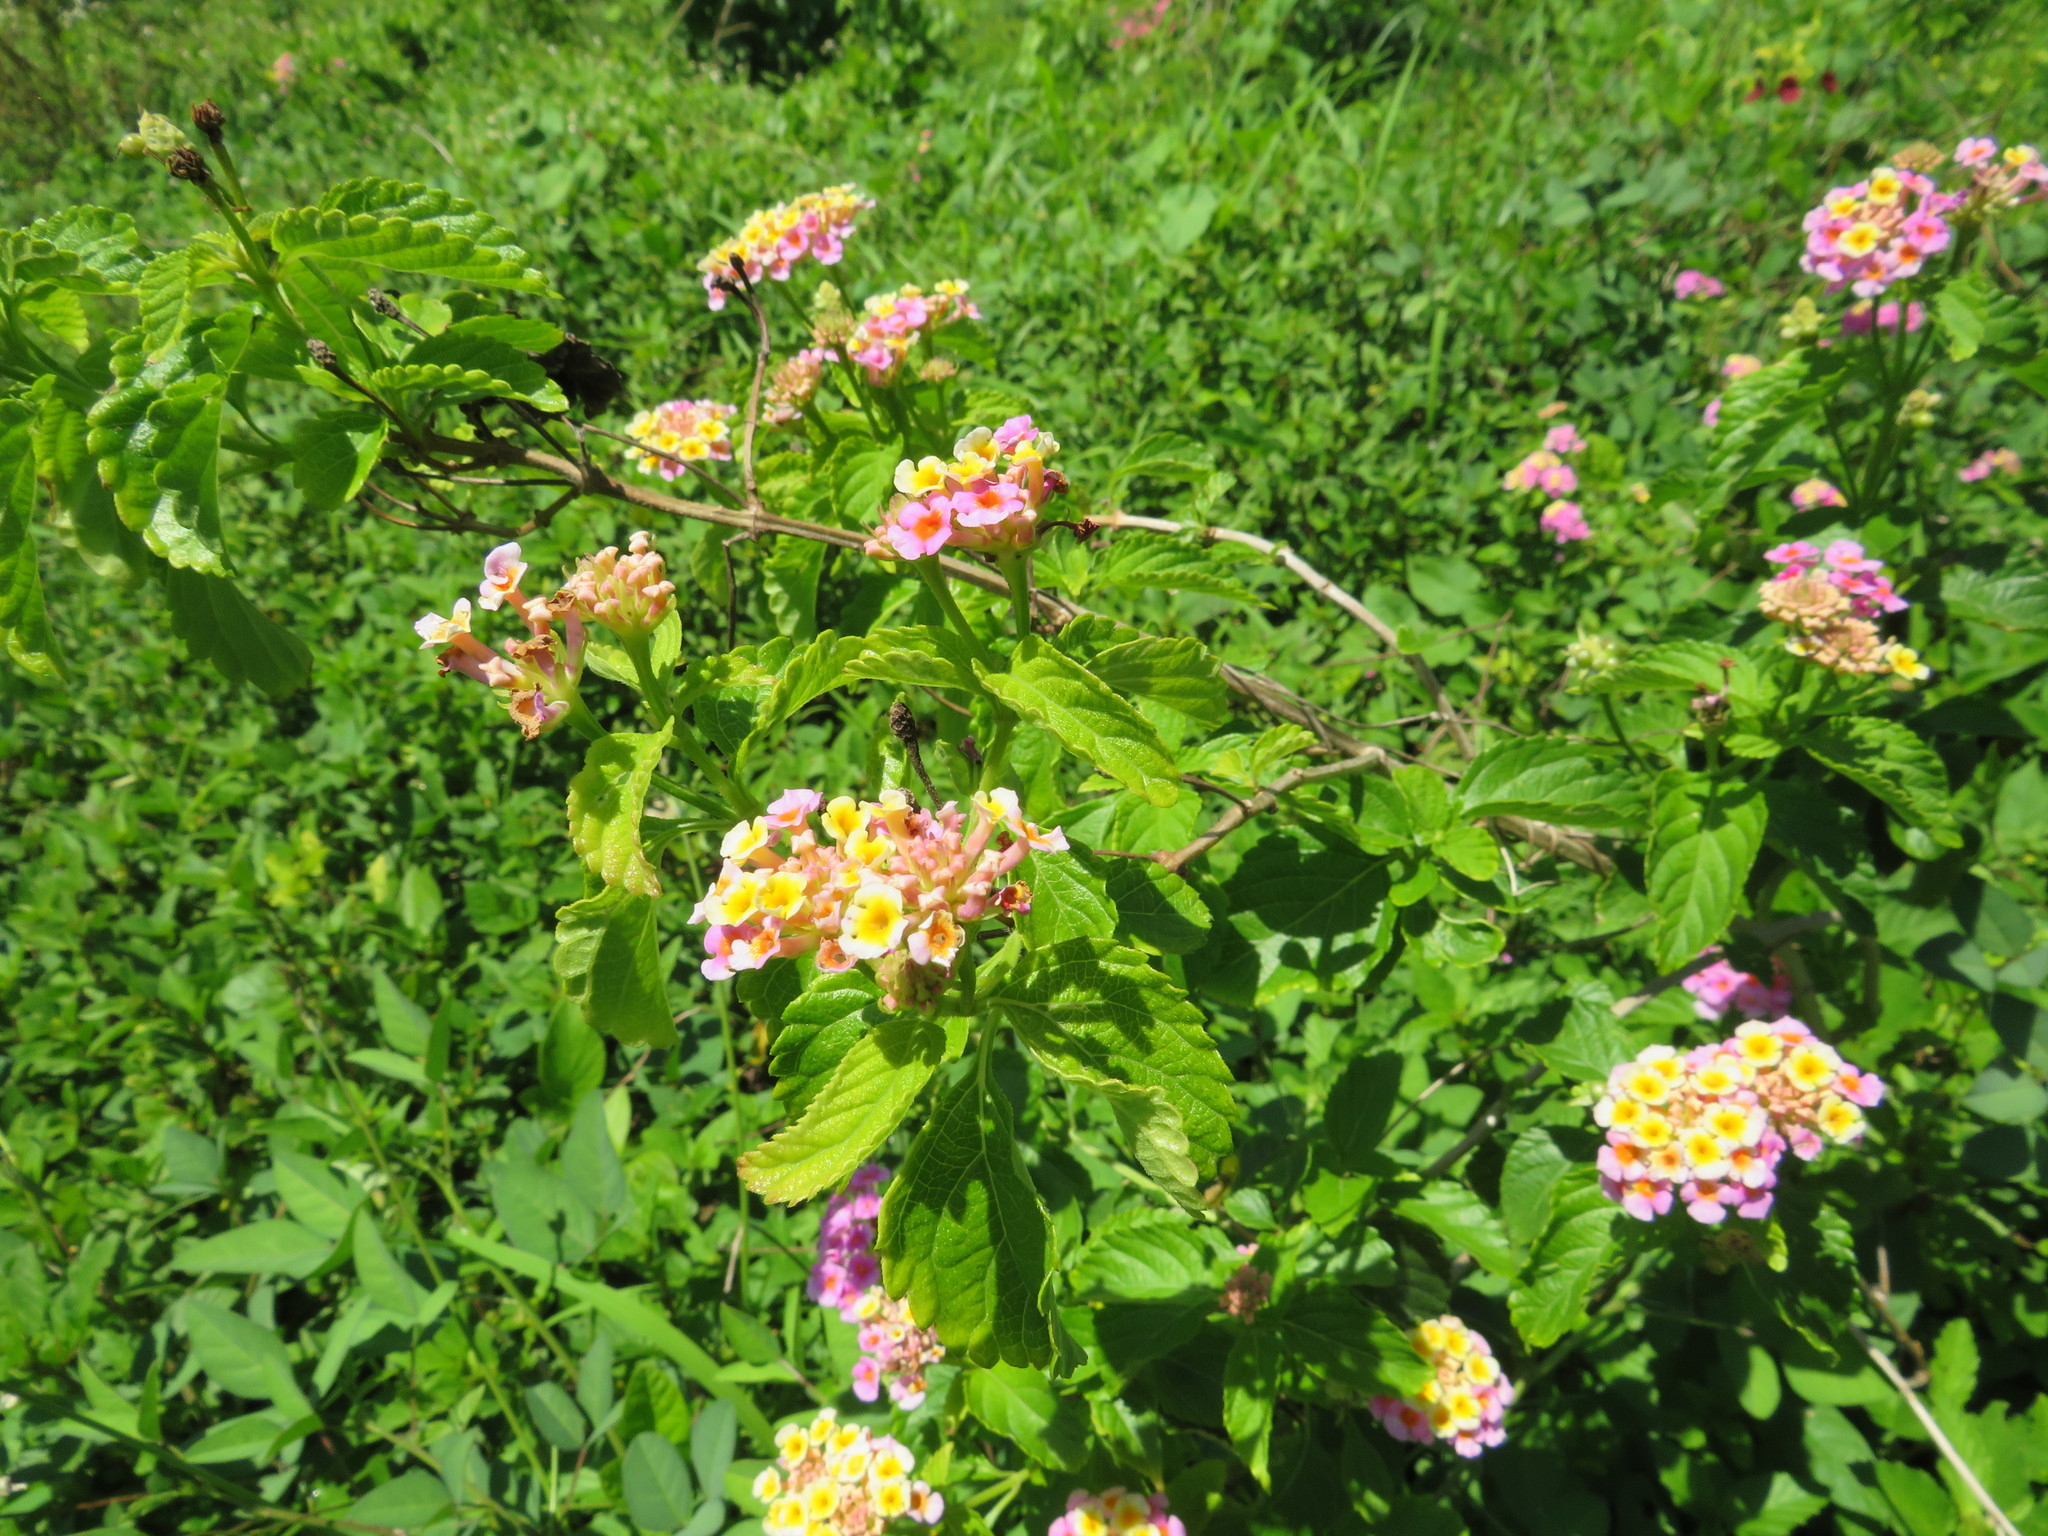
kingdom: Plantae
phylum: Tracheophyta
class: Magnoliopsida
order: Lamiales
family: Verbenaceae
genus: Lantana
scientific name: Lantana camara
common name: Lantana
